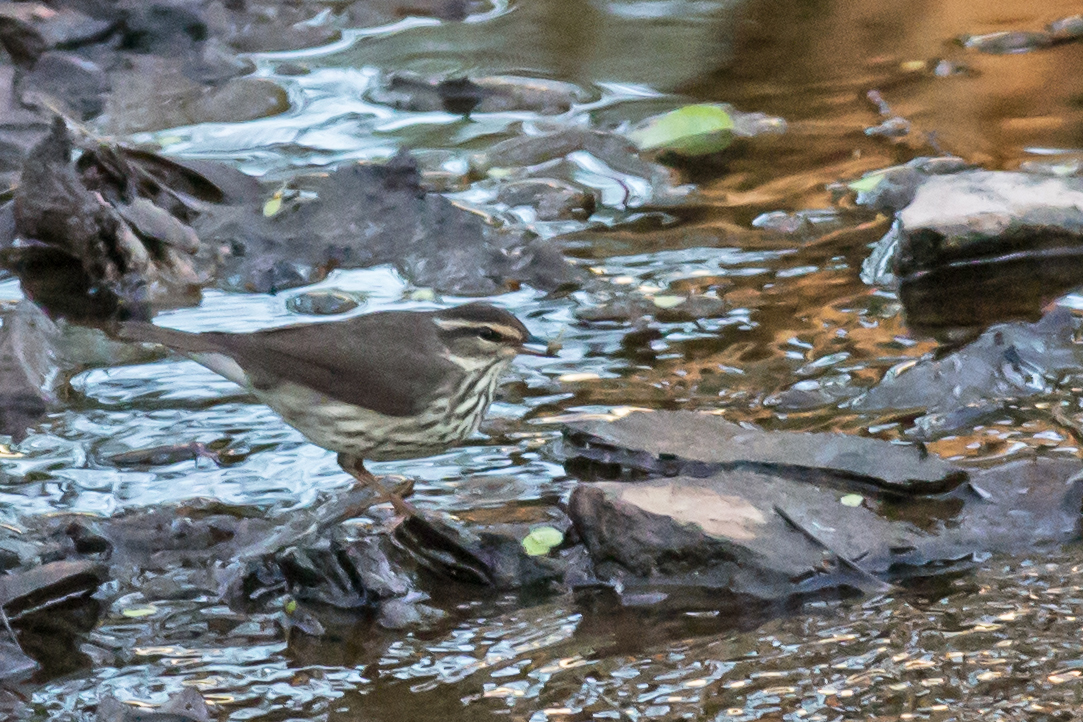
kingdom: Animalia
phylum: Chordata
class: Aves
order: Passeriformes
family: Parulidae
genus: Parkesia
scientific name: Parkesia noveboracensis
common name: Northern waterthrush
